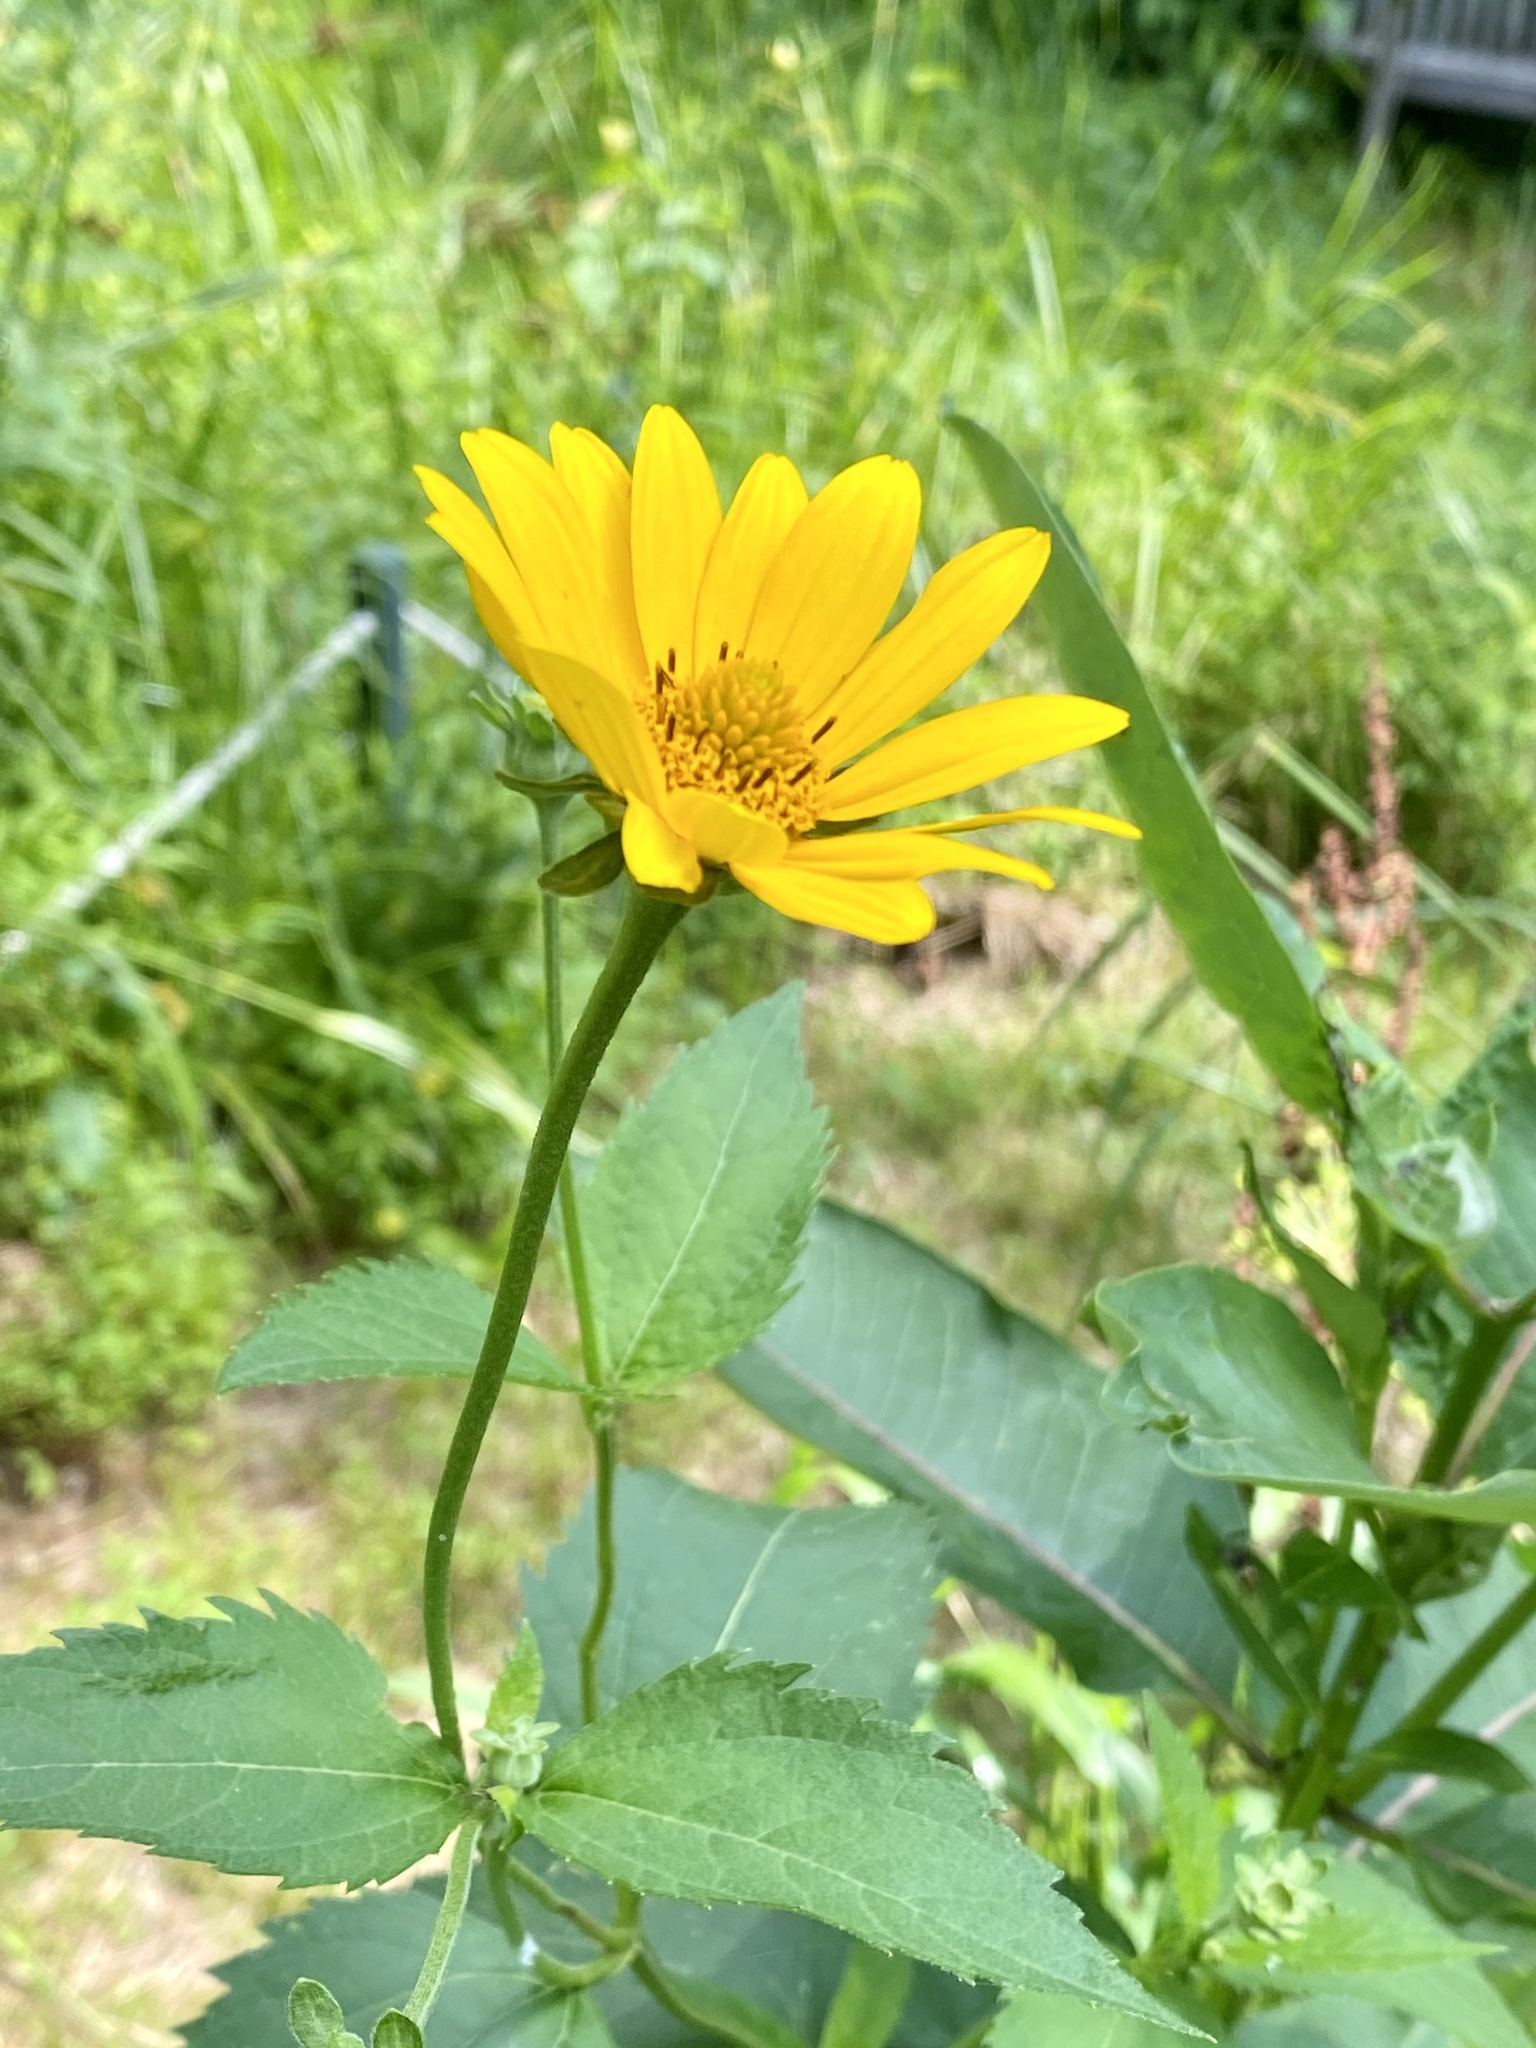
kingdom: Plantae
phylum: Tracheophyta
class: Magnoliopsida
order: Asterales
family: Asteraceae
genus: Heliopsis
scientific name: Heliopsis helianthoides
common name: False sunflower
